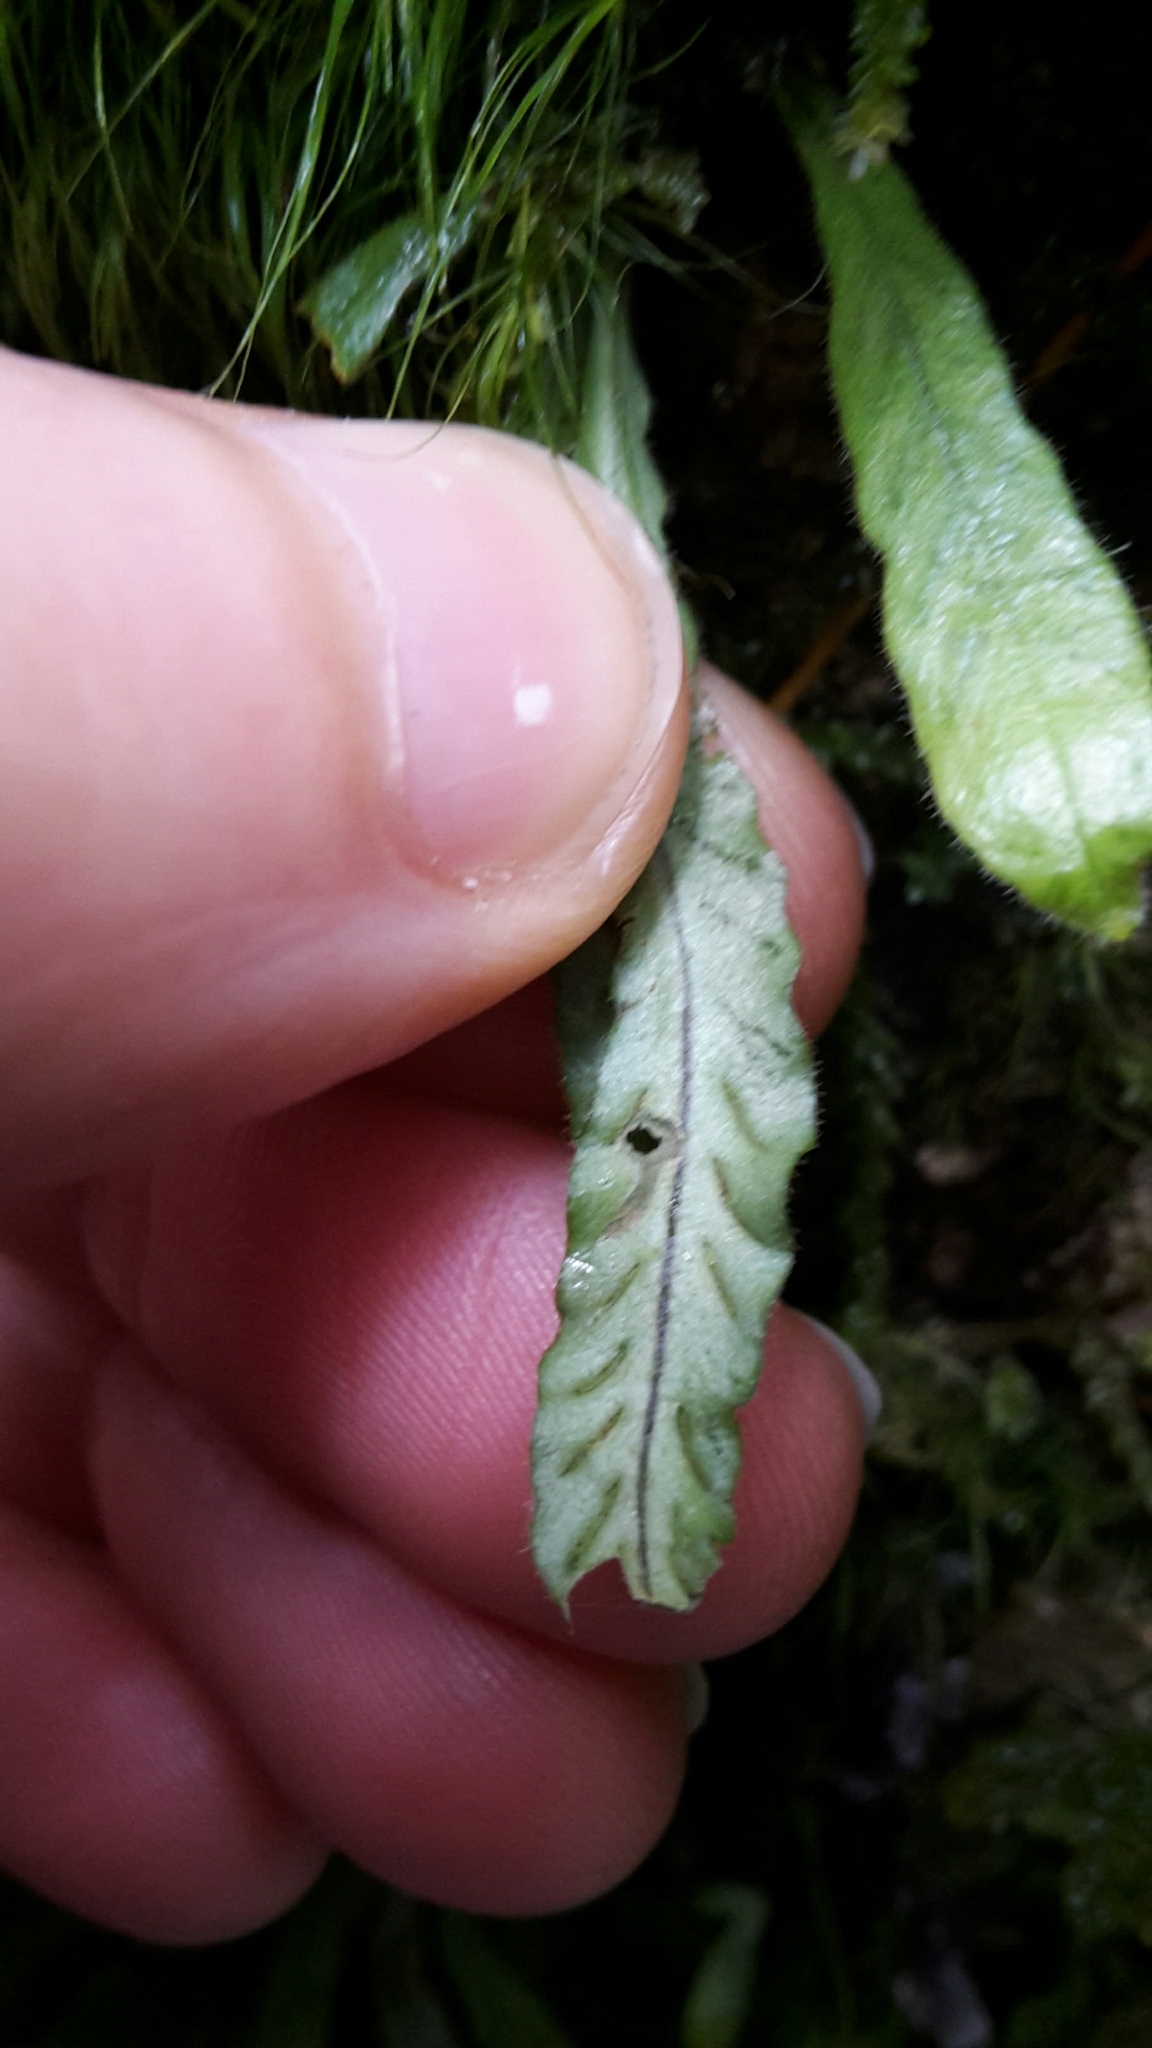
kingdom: Plantae
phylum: Tracheophyta
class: Polypodiopsida
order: Polypodiales
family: Polypodiaceae
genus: Notogrammitis
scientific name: Notogrammitis pseudociliata
